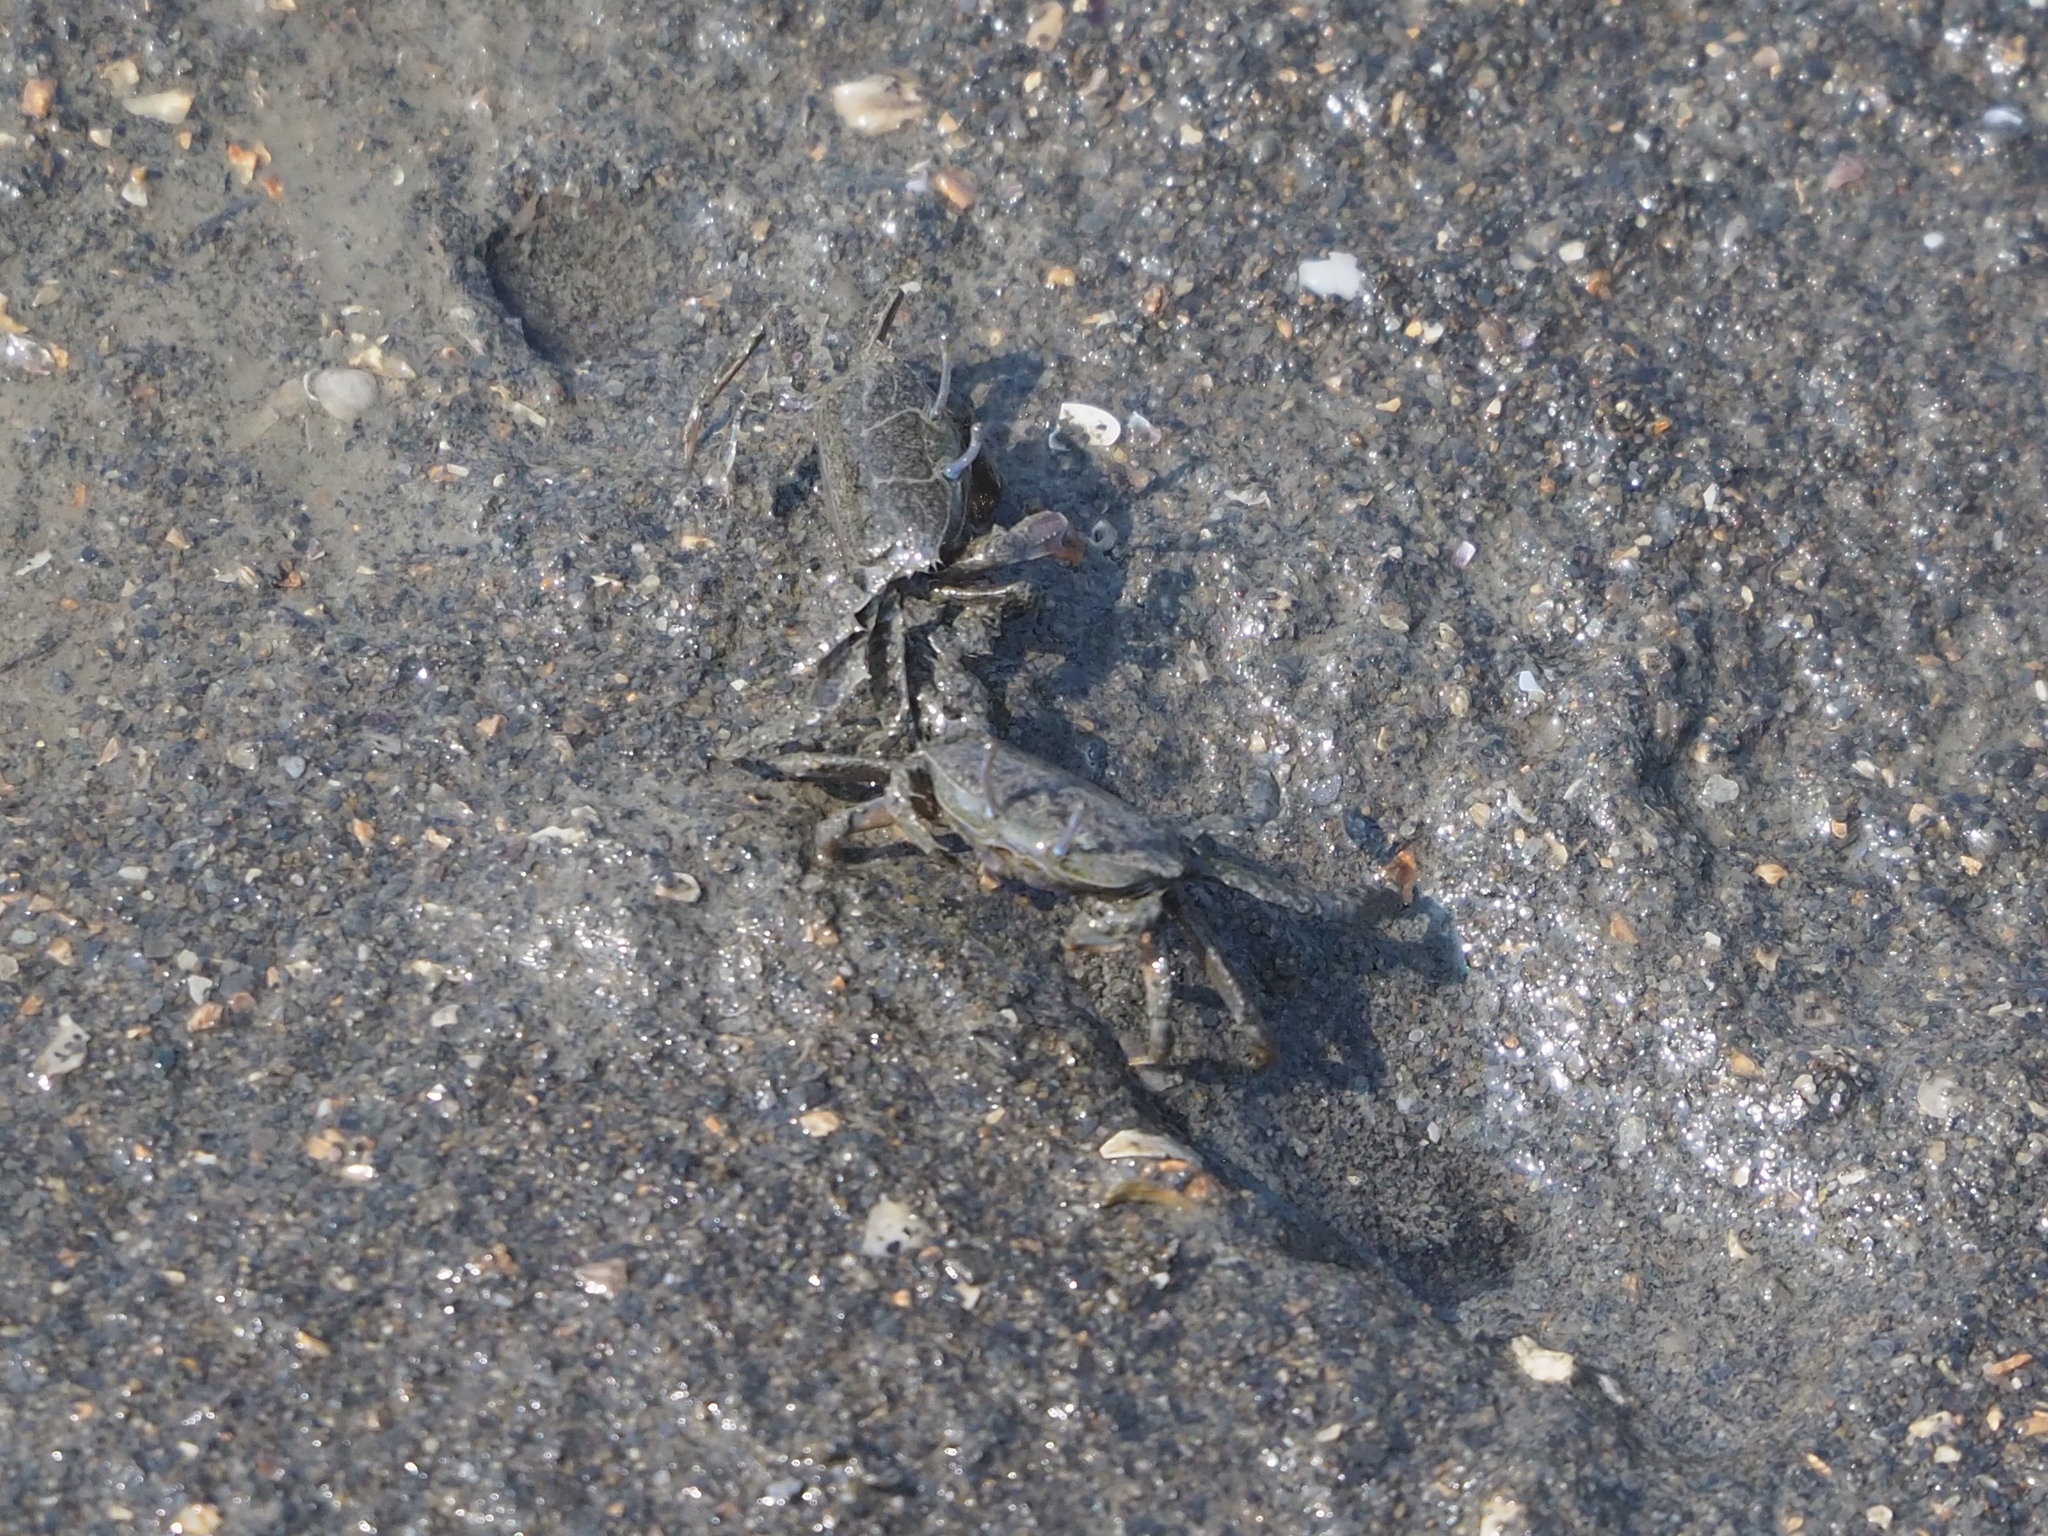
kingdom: Animalia
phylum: Arthropoda
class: Malacostraca
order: Decapoda
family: Macrophthalmidae
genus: Macrophthalmus
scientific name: Macrophthalmus abbreviatus
